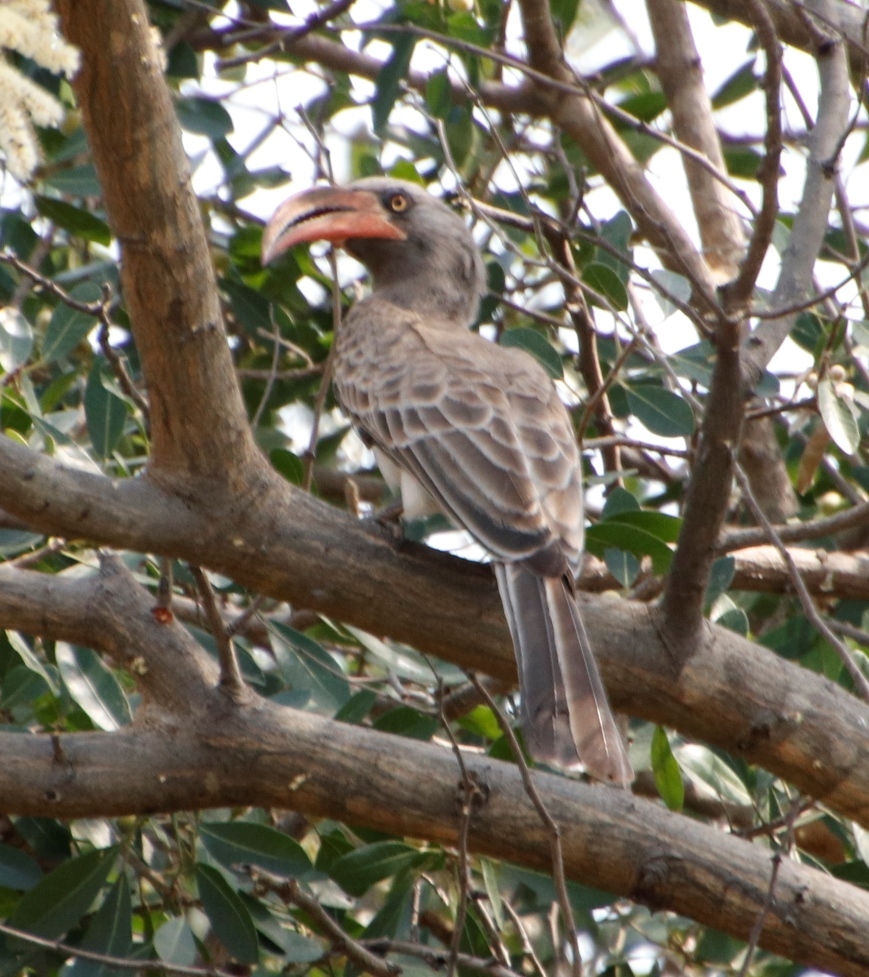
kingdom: Animalia
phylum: Chordata
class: Aves
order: Bucerotiformes
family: Bucerotidae
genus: Lophoceros
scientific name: Lophoceros bradfieldi
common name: Bradfield's hornbill
